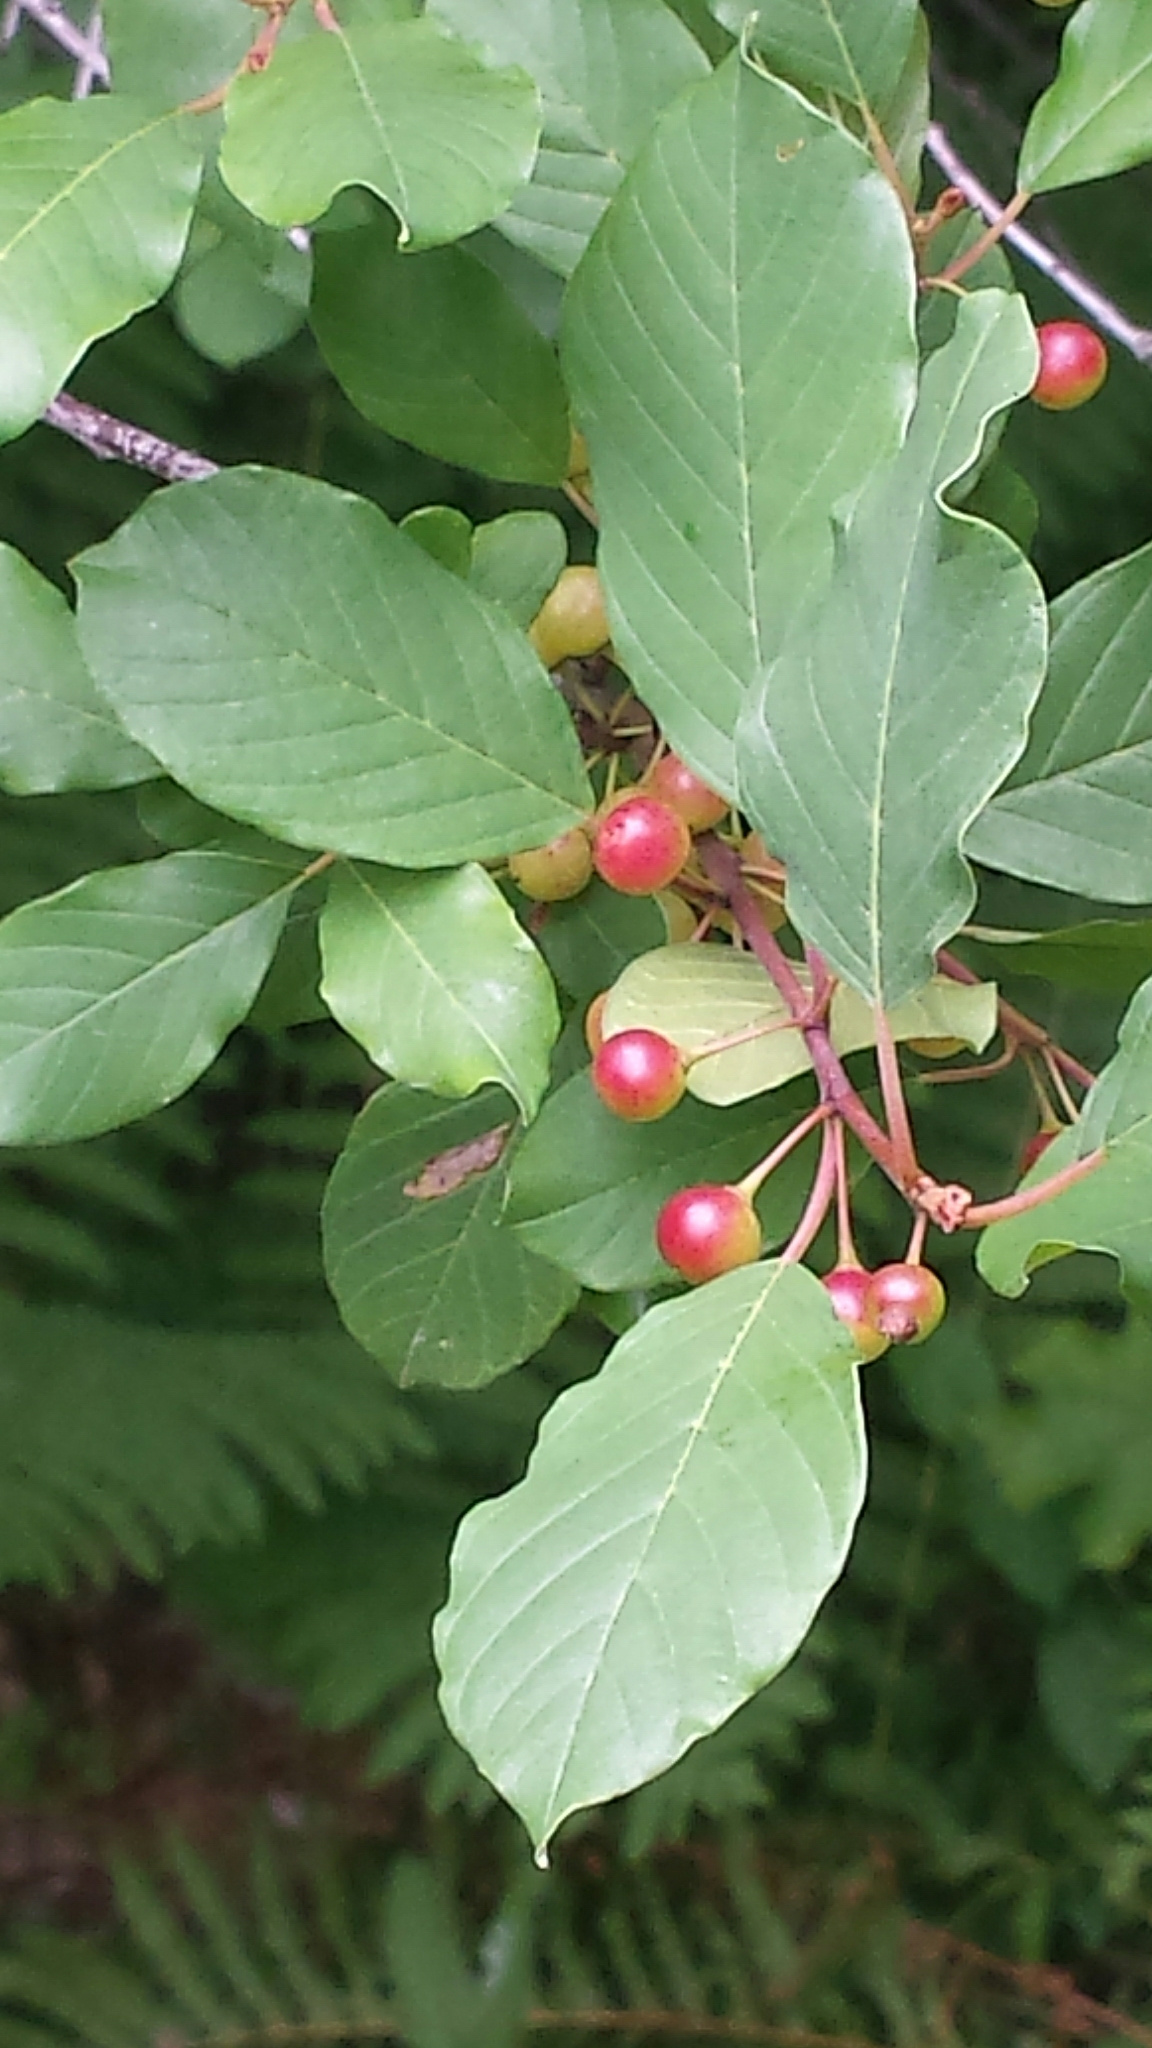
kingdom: Plantae
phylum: Tracheophyta
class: Magnoliopsida
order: Rosales
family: Rhamnaceae
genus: Frangula
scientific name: Frangula alnus
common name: Alder buckthorn
